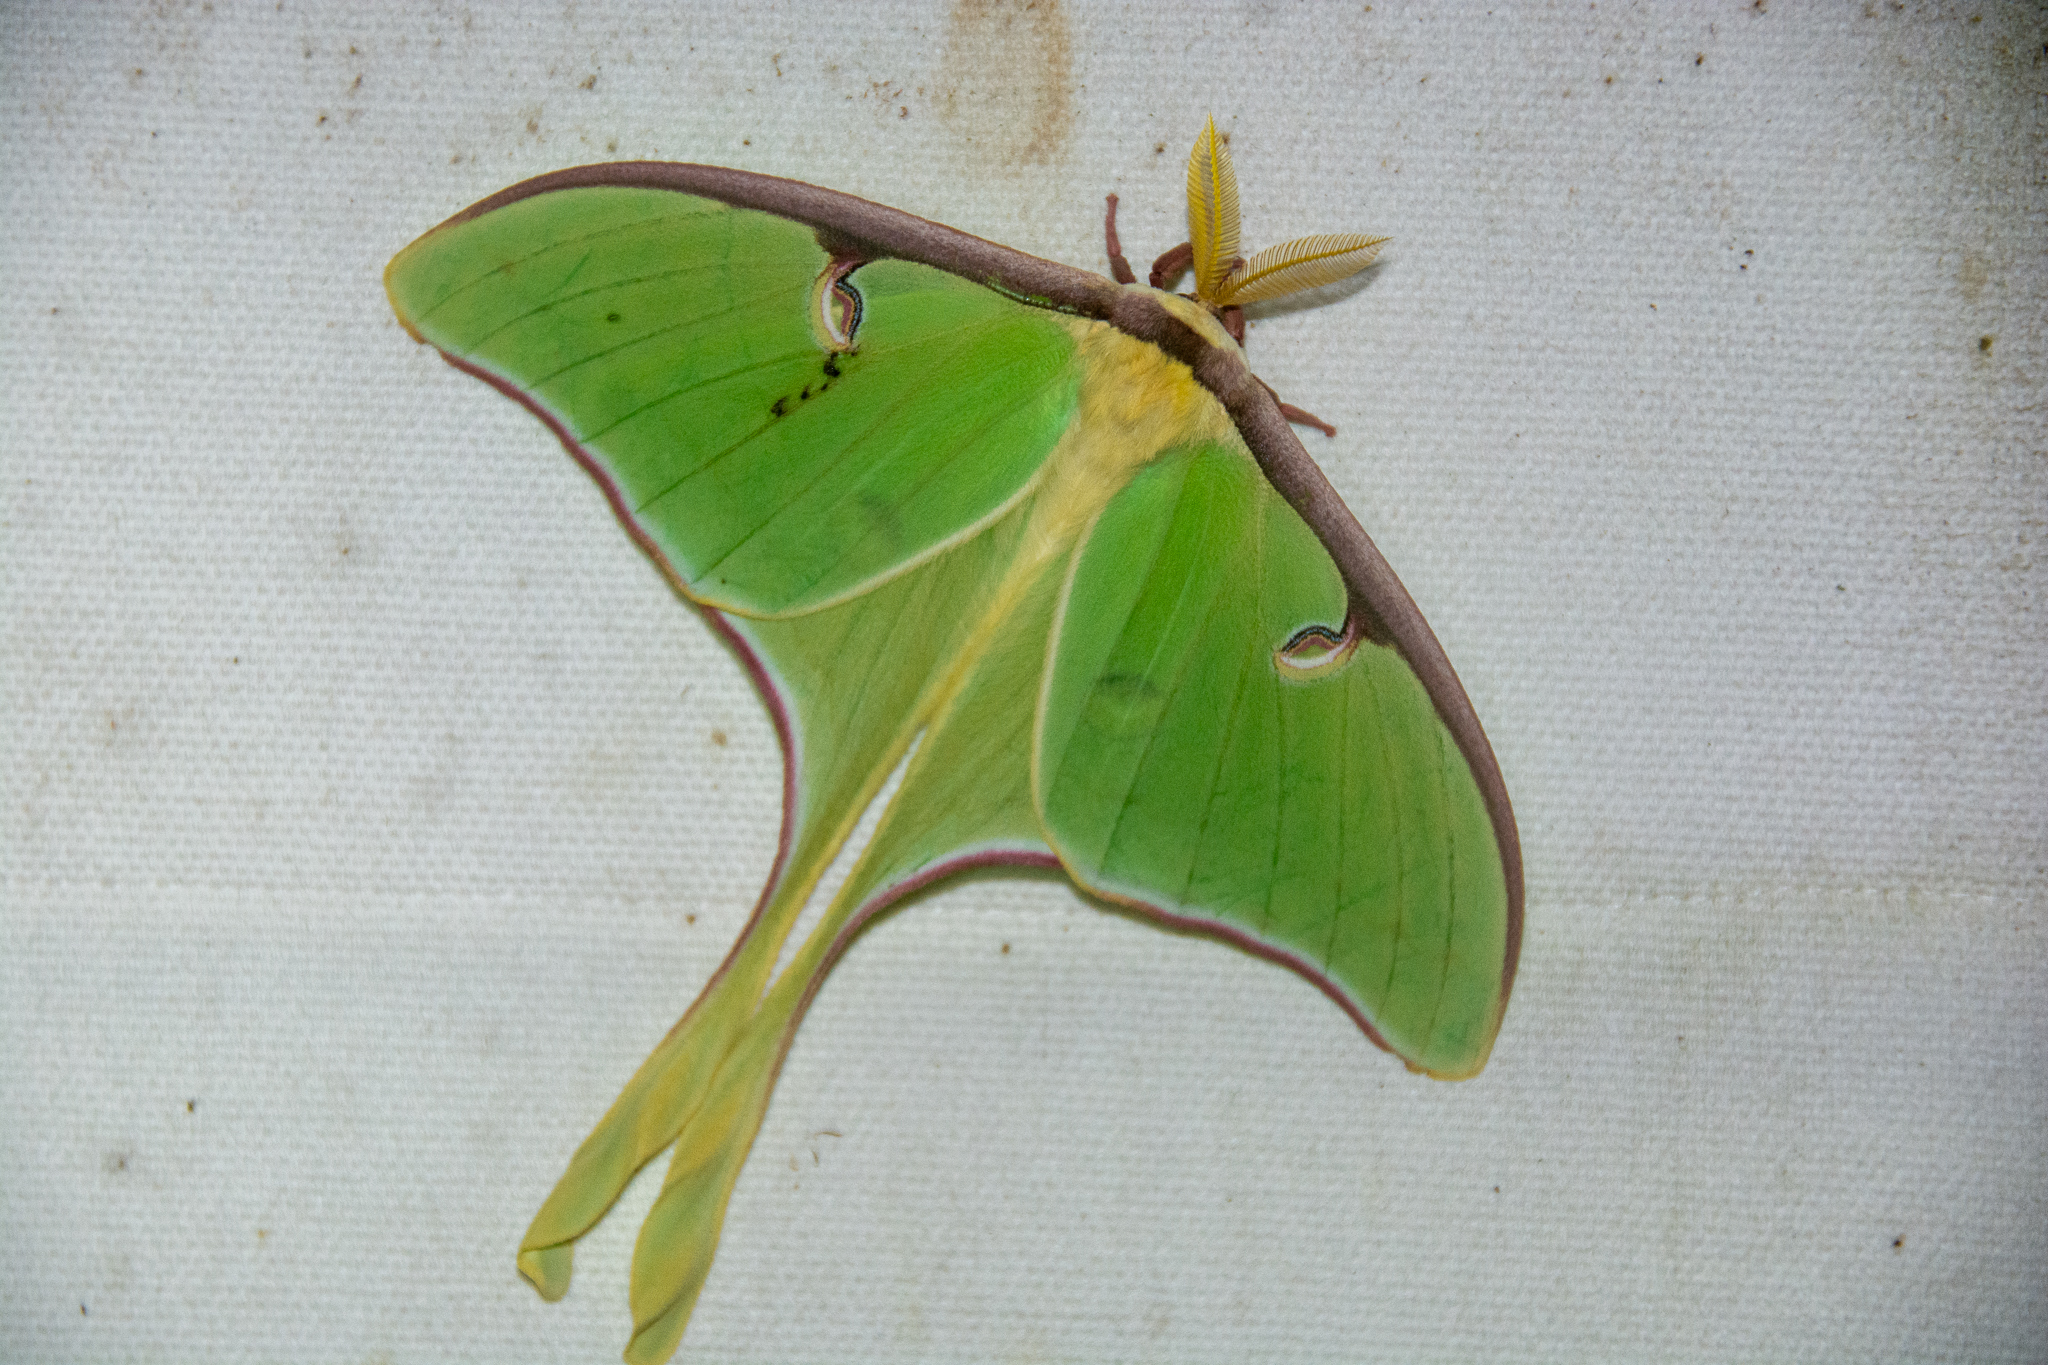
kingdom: Animalia
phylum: Arthropoda
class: Insecta
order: Lepidoptera
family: Saturniidae
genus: Actias
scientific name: Actias luna
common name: Luna moth
